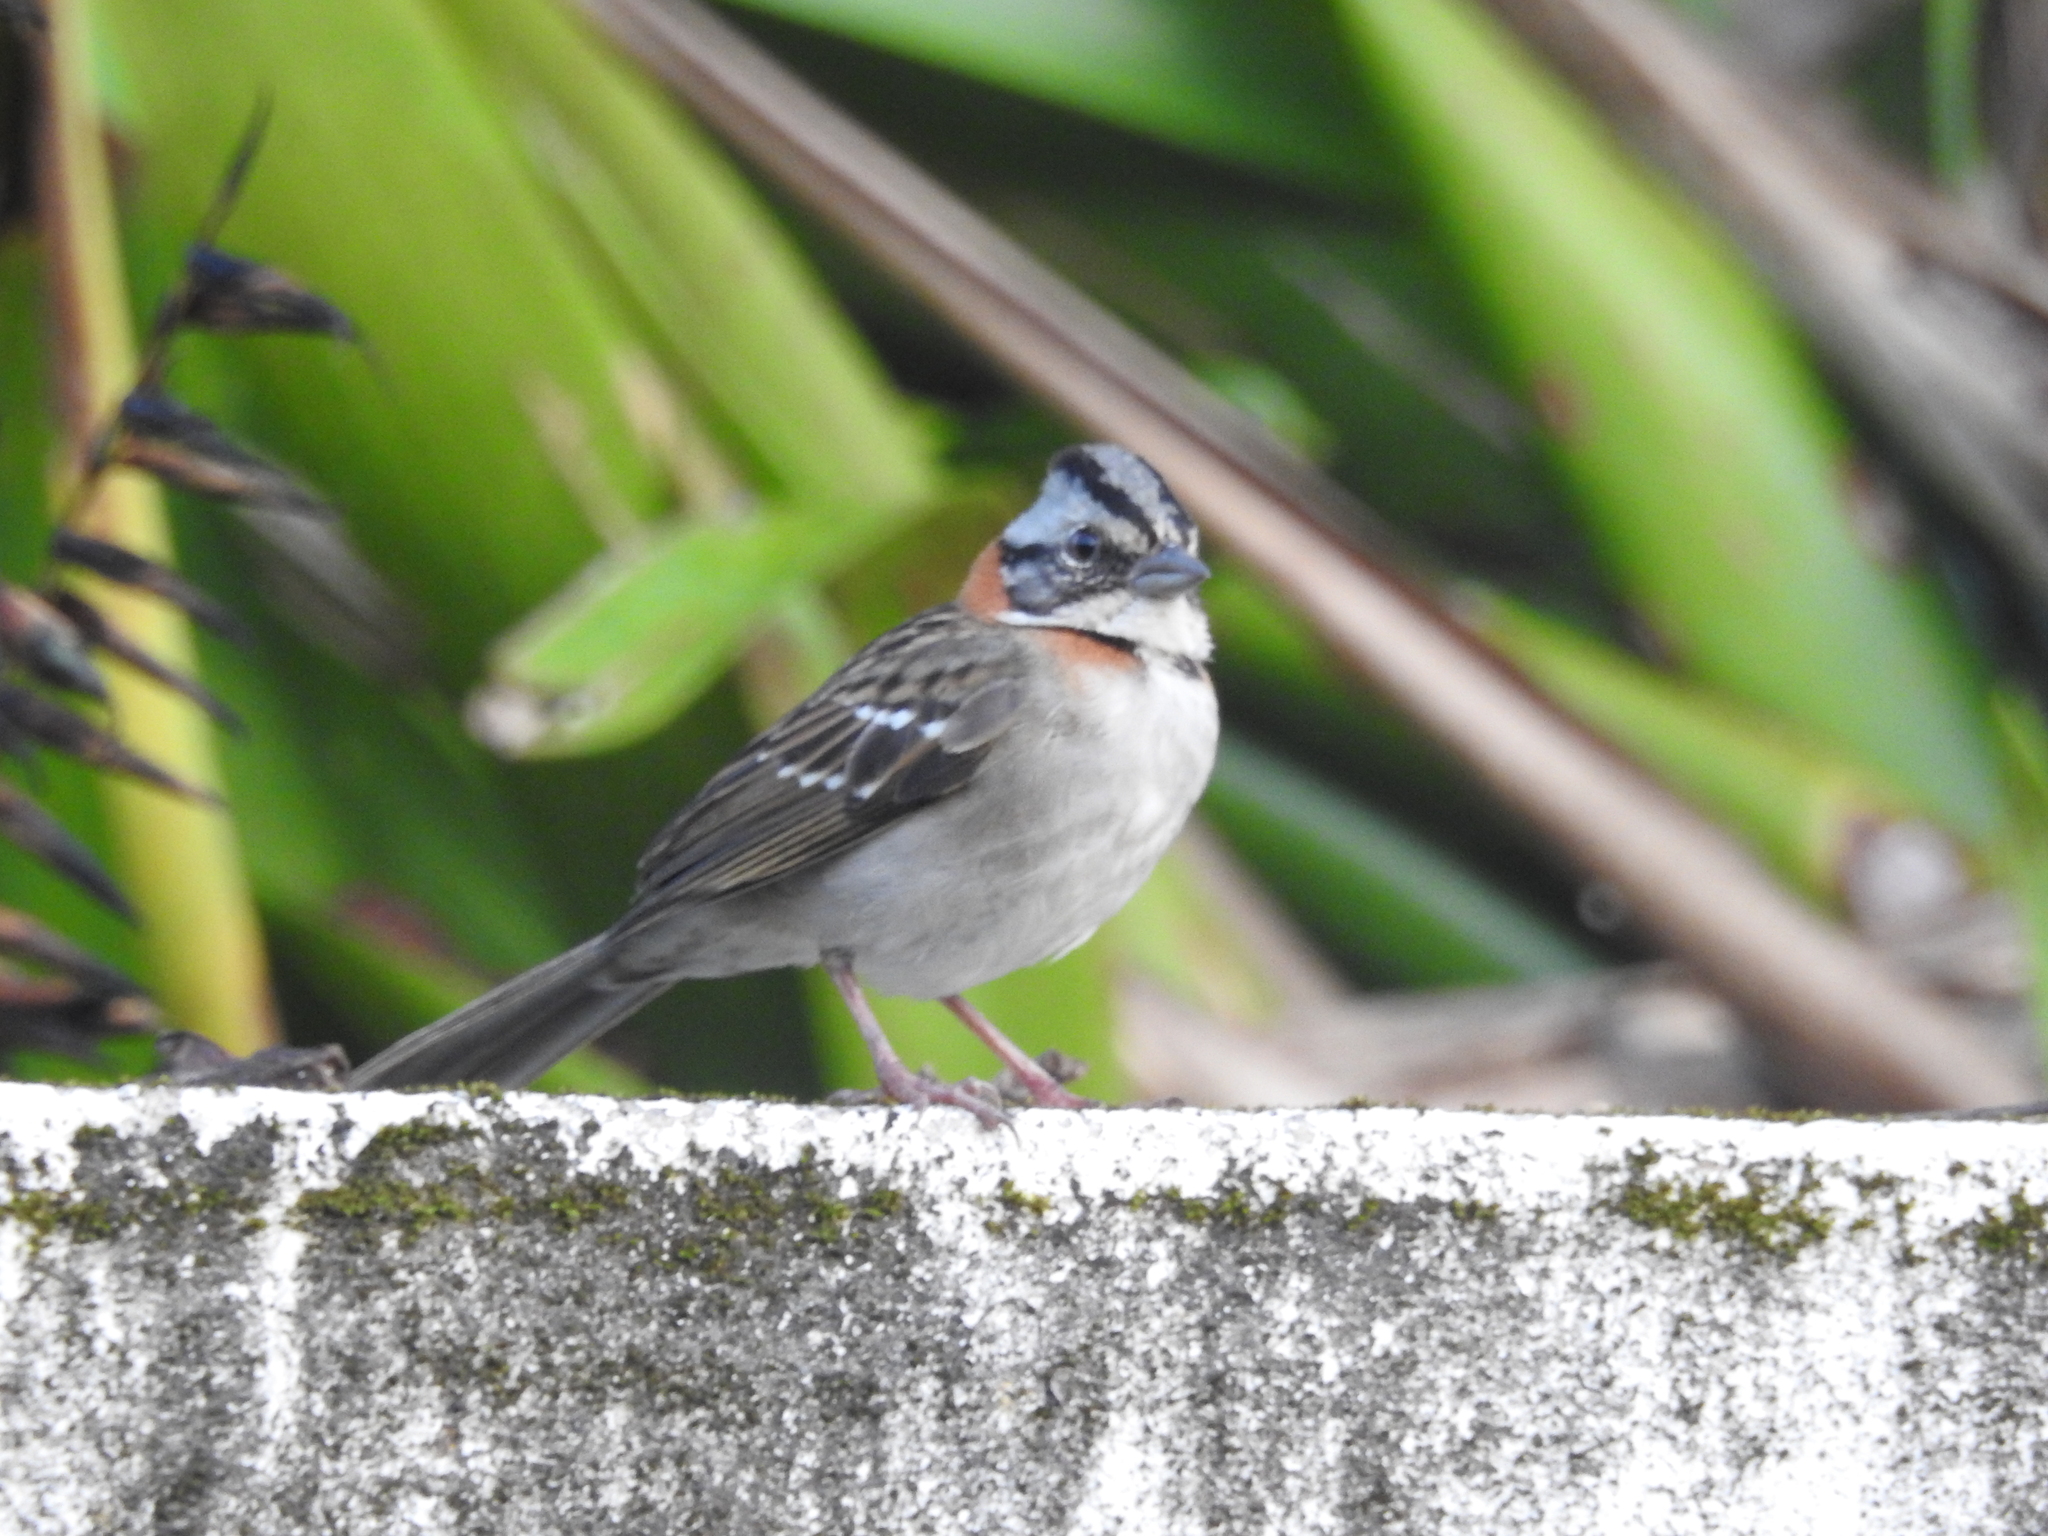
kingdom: Animalia
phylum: Chordata
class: Aves
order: Passeriformes
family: Passerellidae
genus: Zonotrichia
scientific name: Zonotrichia capensis
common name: Rufous-collared sparrow
